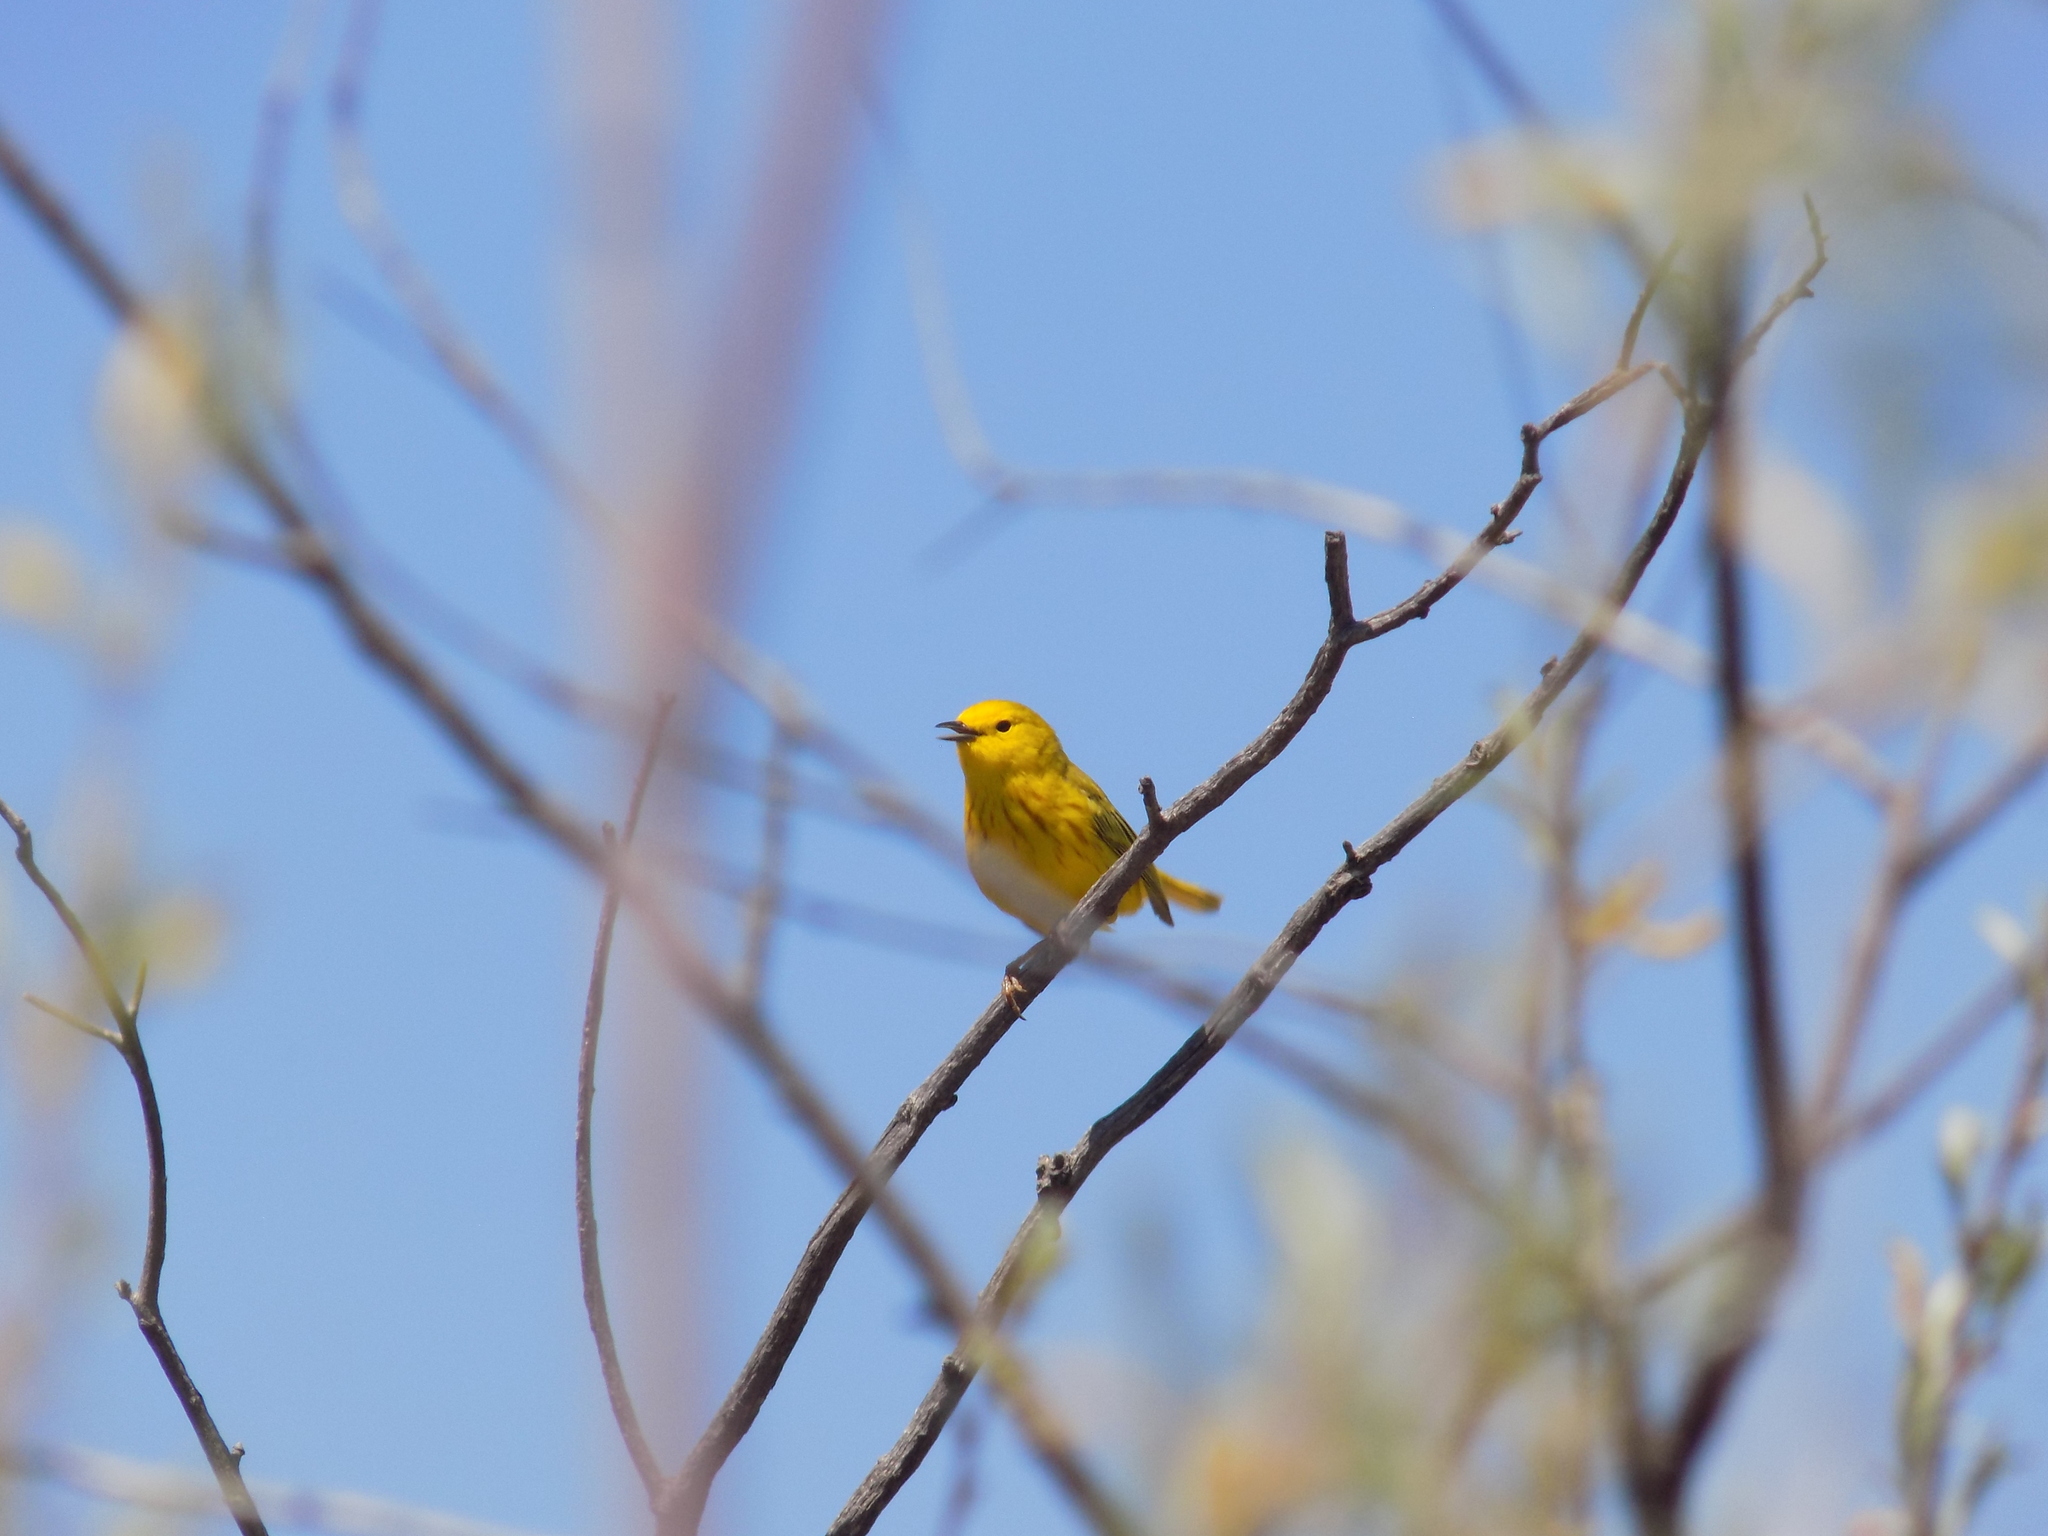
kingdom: Animalia
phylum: Chordata
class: Aves
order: Passeriformes
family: Parulidae
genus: Setophaga
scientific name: Setophaga petechia
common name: Yellow warbler
